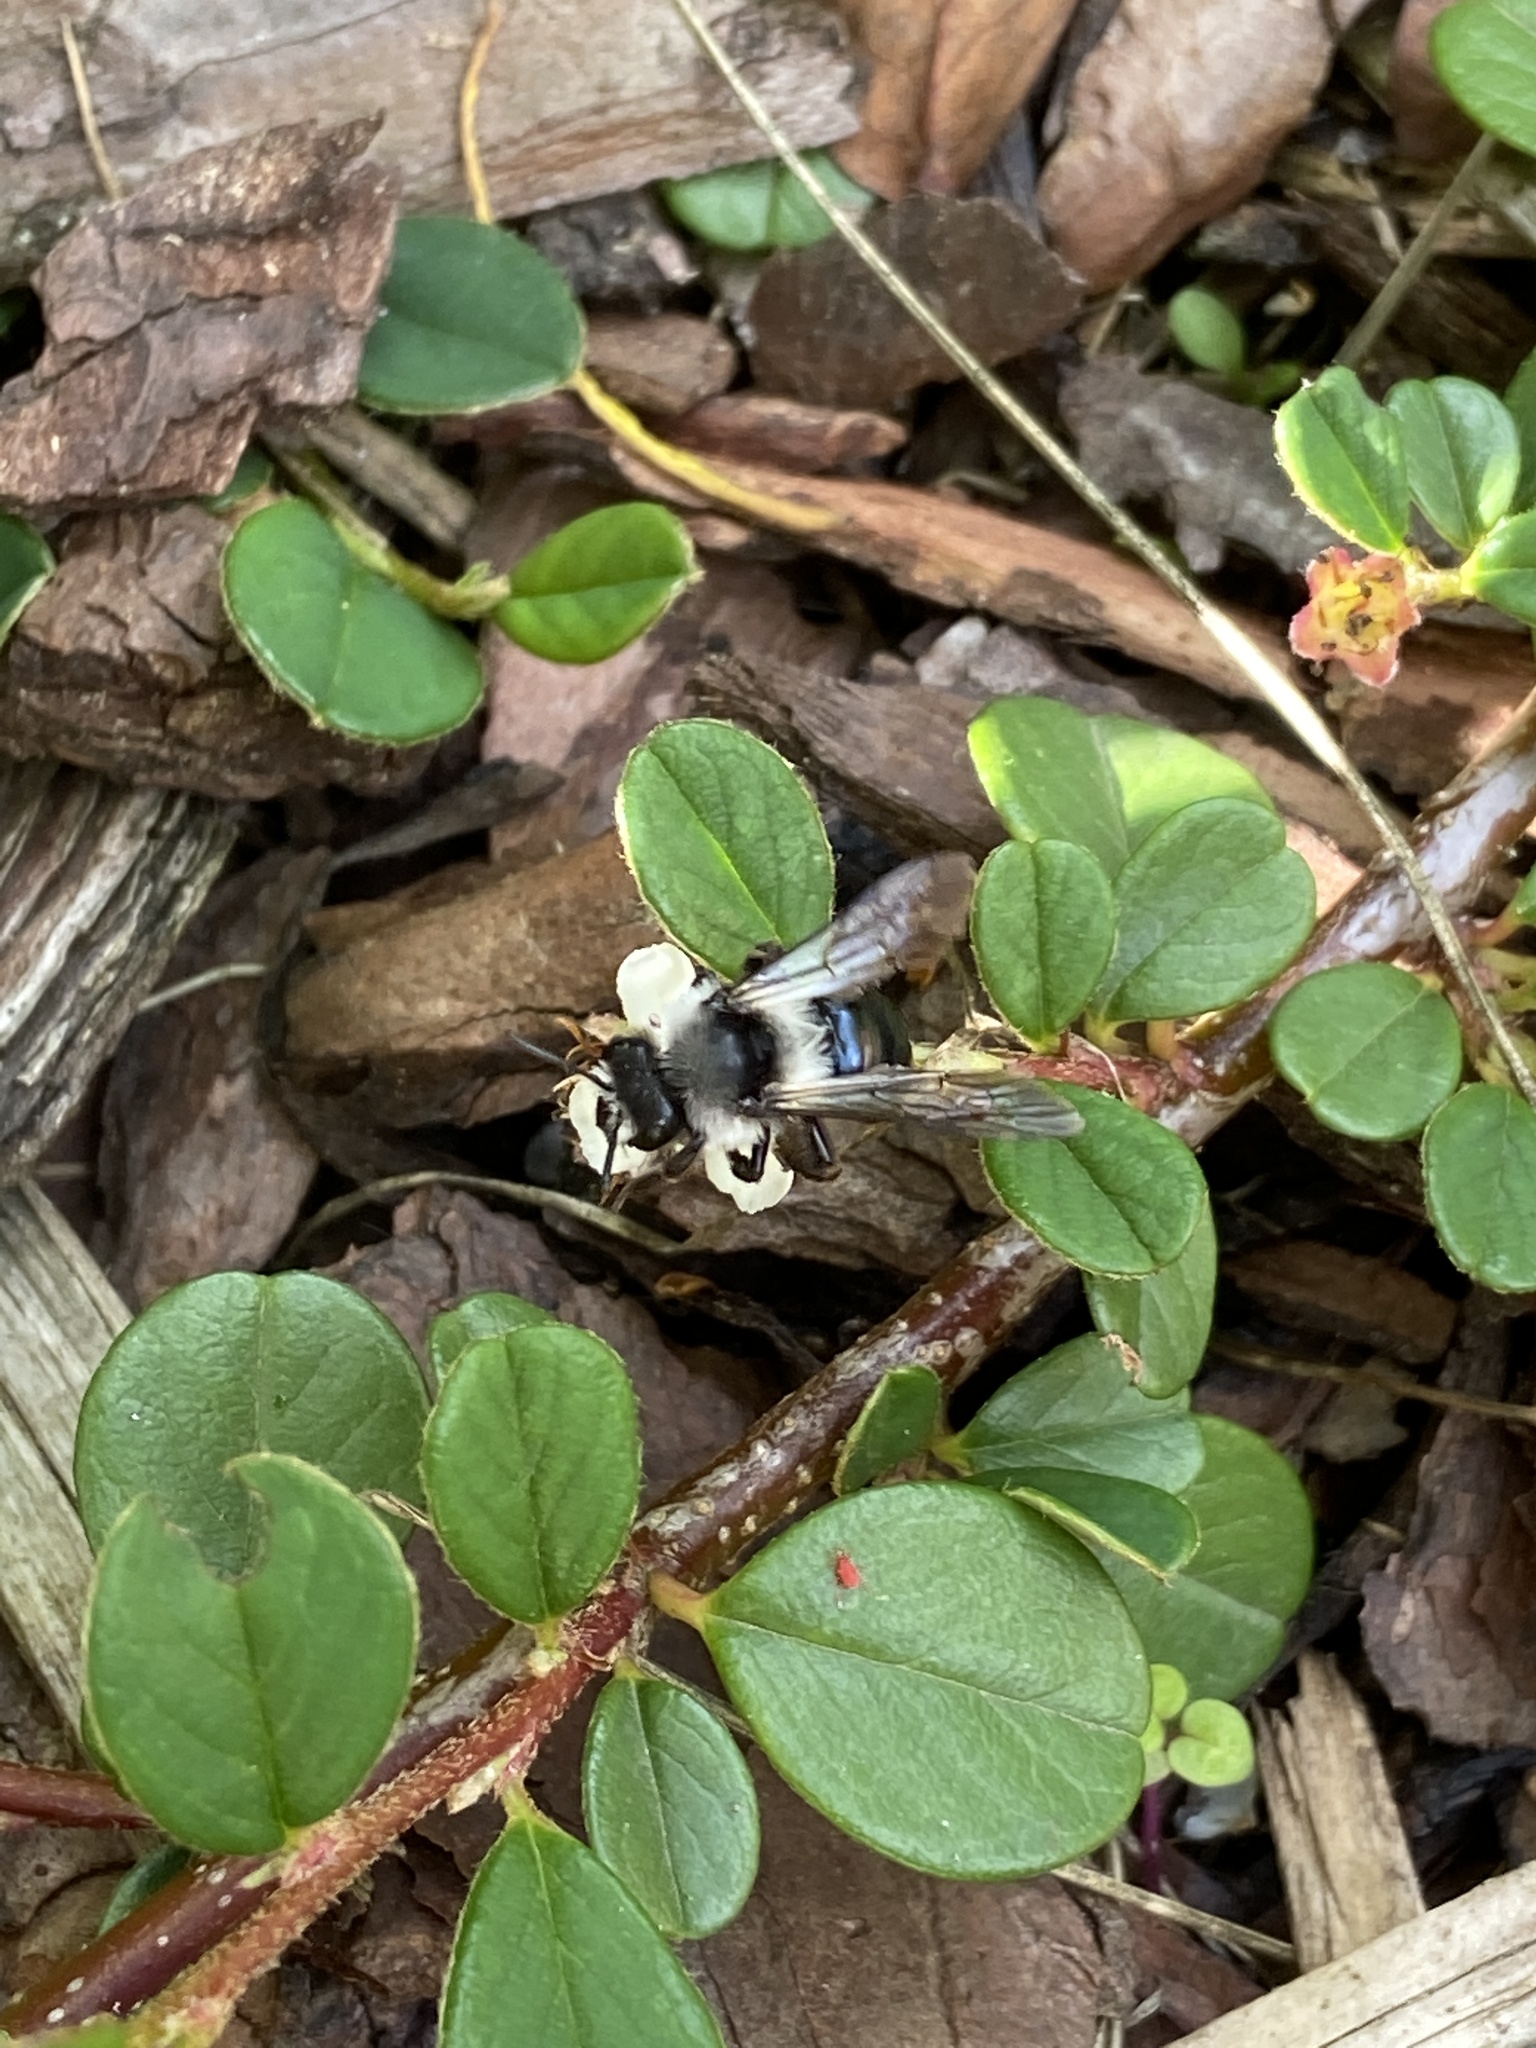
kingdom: Animalia
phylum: Arthropoda
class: Insecta
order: Hymenoptera
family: Andrenidae
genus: Andrena
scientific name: Andrena cineraria
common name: Ashy mining bee
